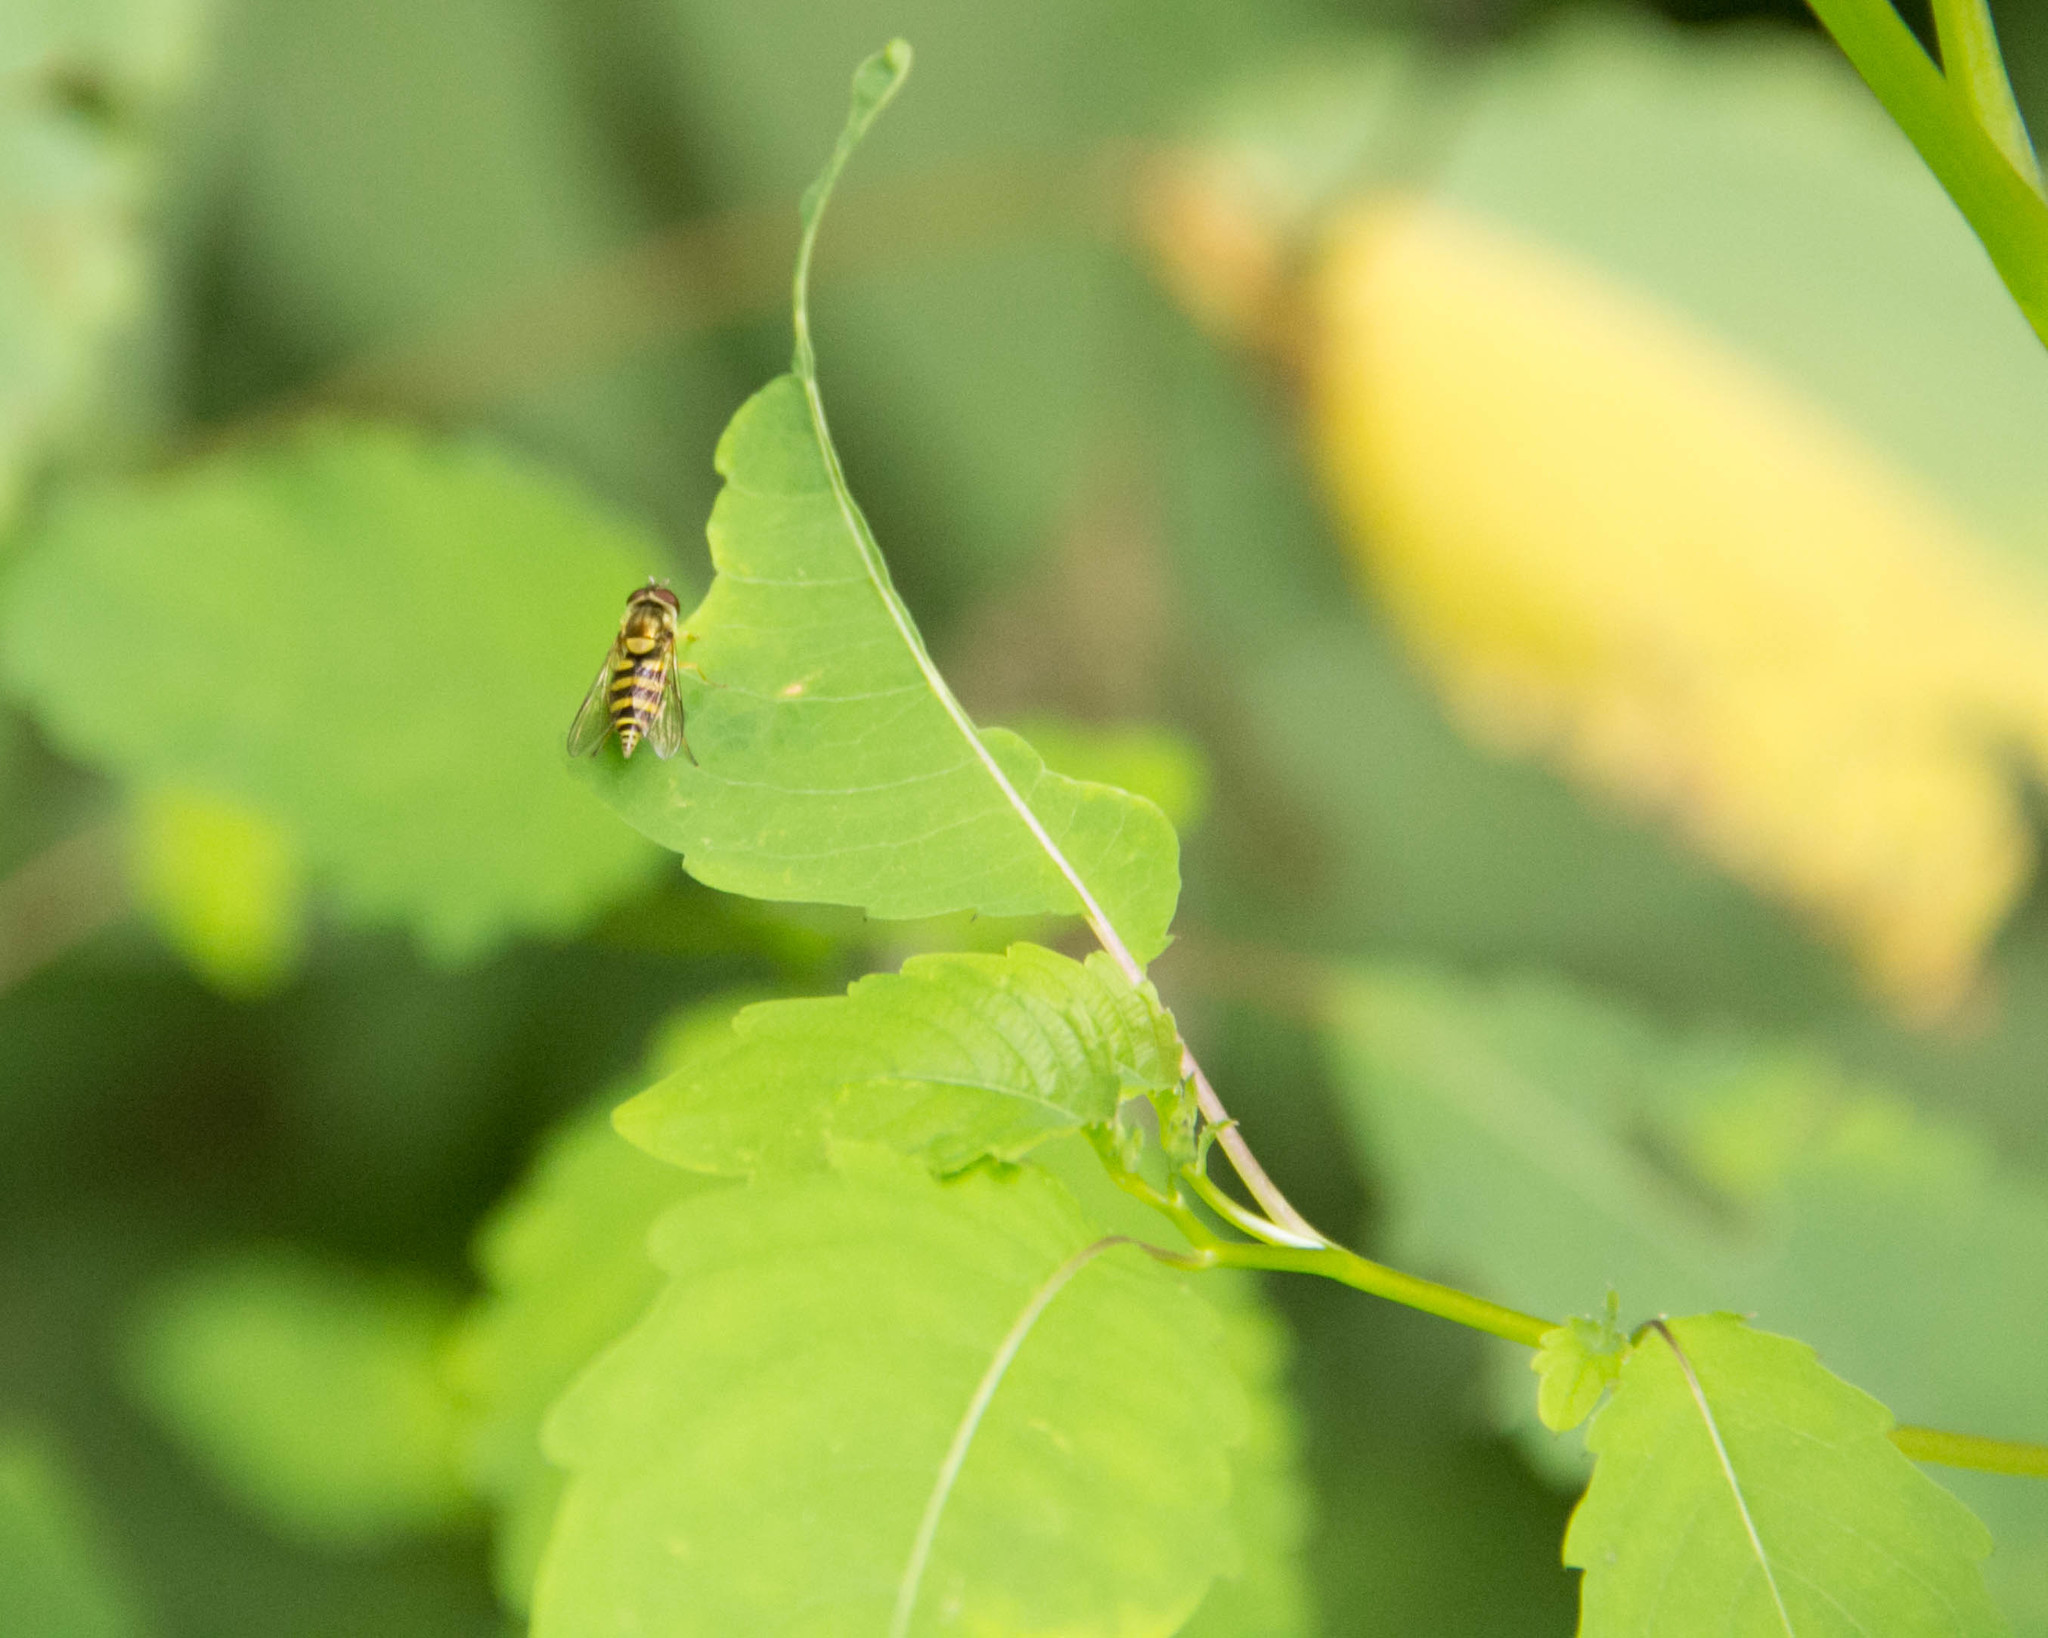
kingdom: Animalia
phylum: Arthropoda
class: Insecta
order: Diptera
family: Syrphidae
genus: Syrphus
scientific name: Syrphus
